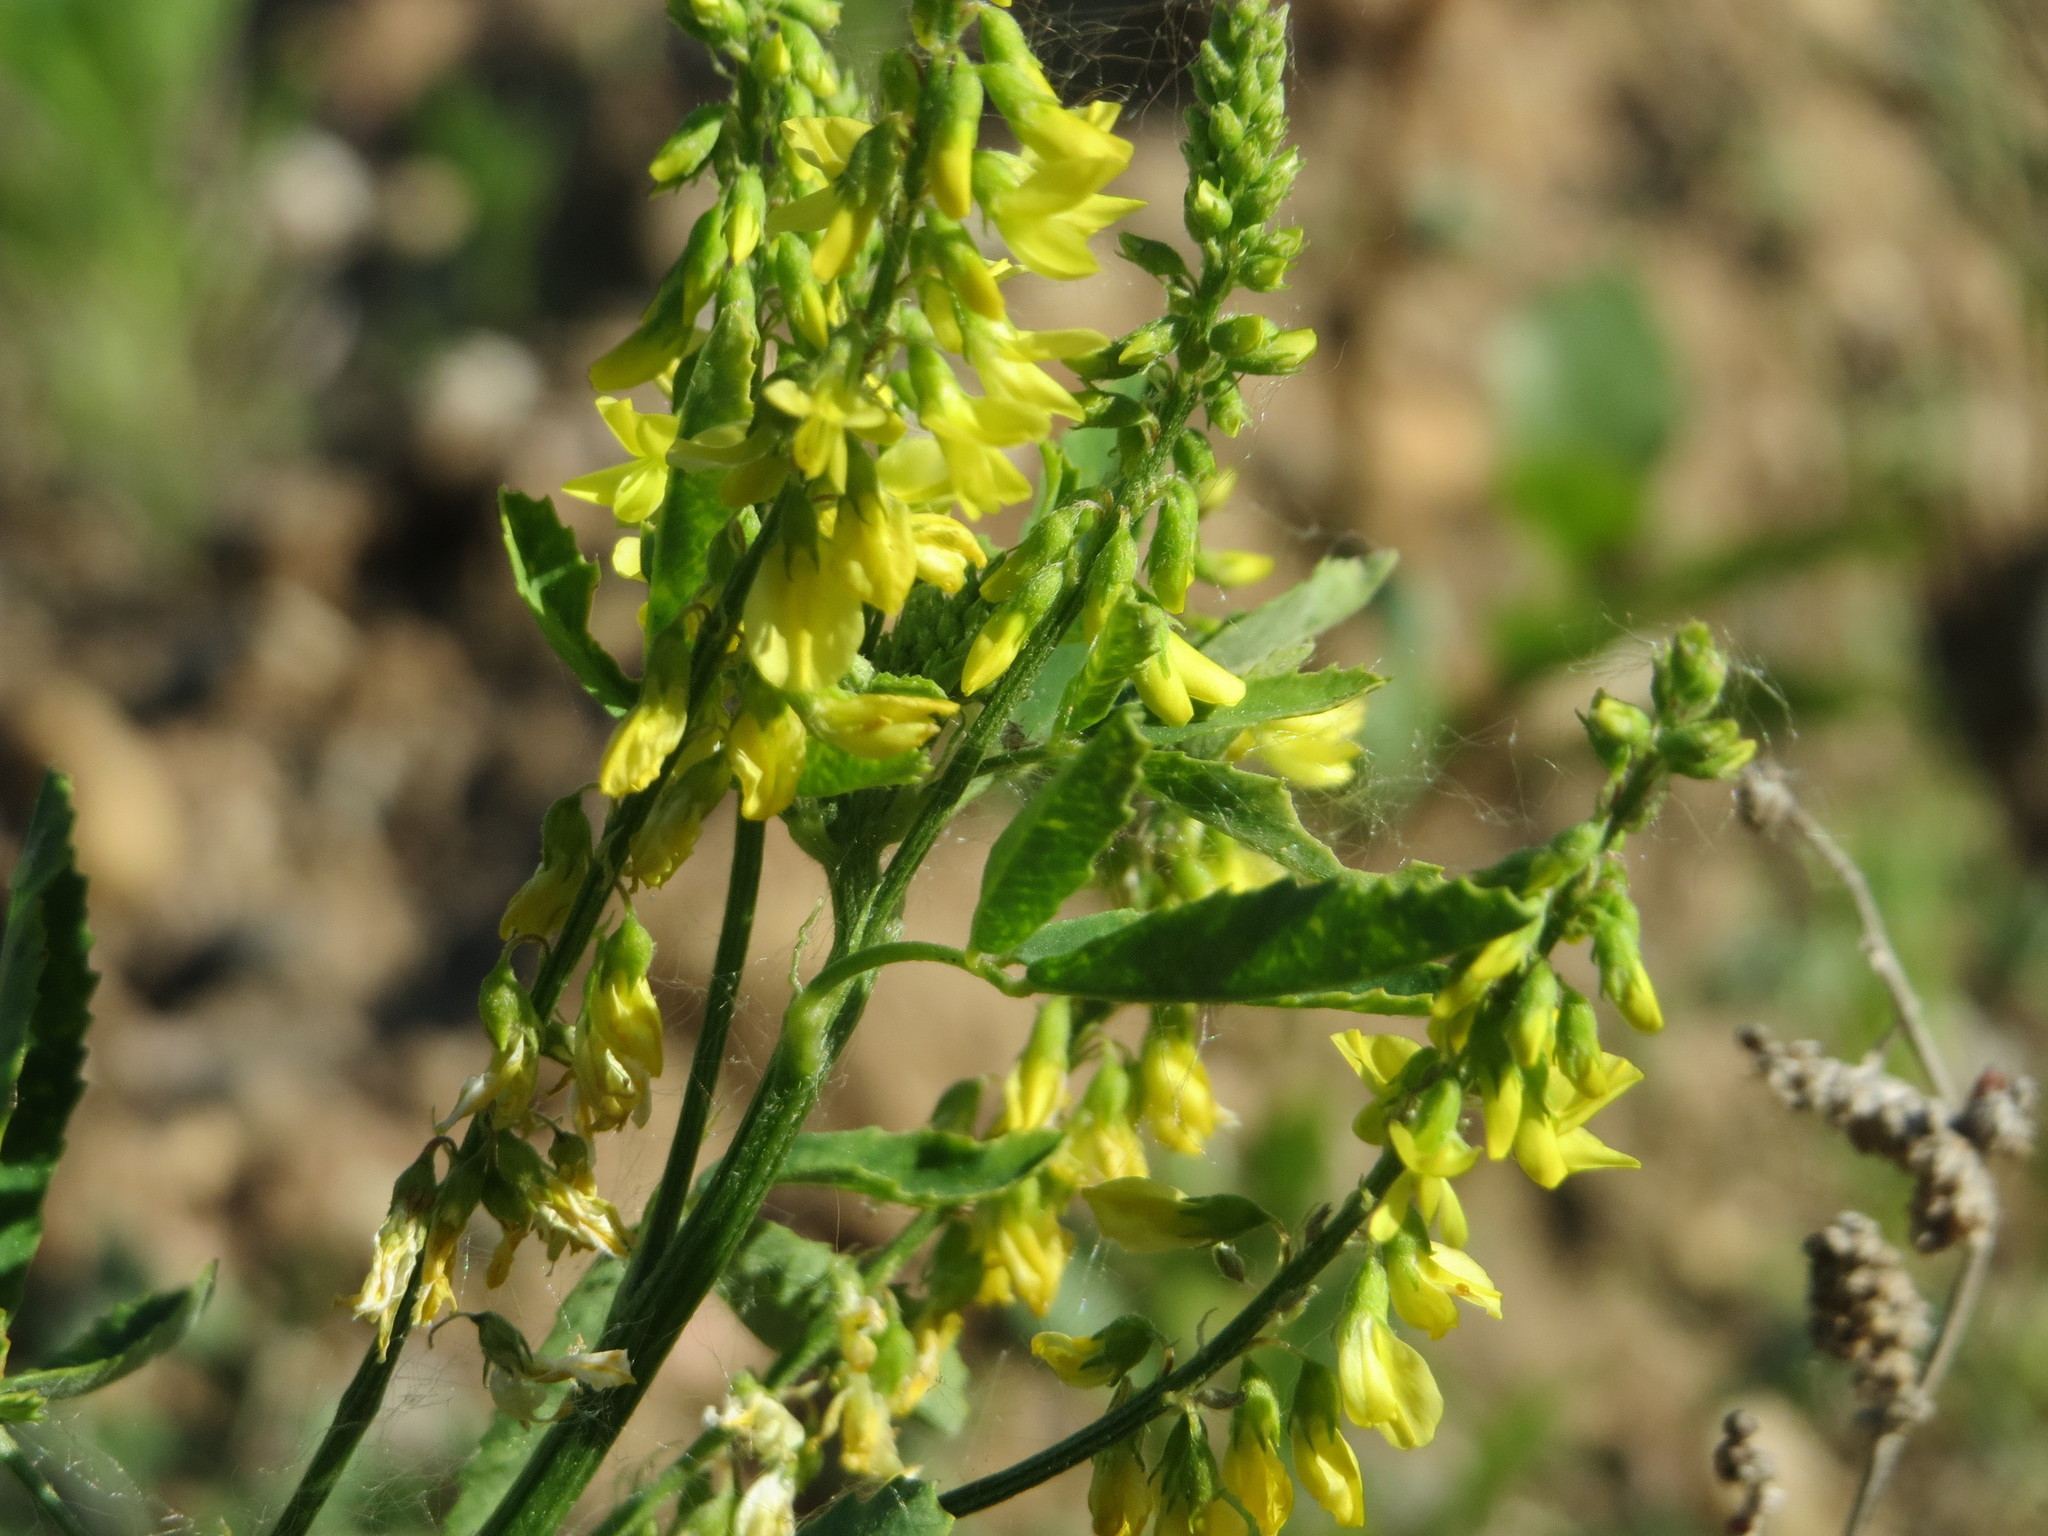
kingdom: Plantae
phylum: Tracheophyta
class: Magnoliopsida
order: Fabales
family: Fabaceae
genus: Melilotus
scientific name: Melilotus officinalis
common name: Sweetclover
